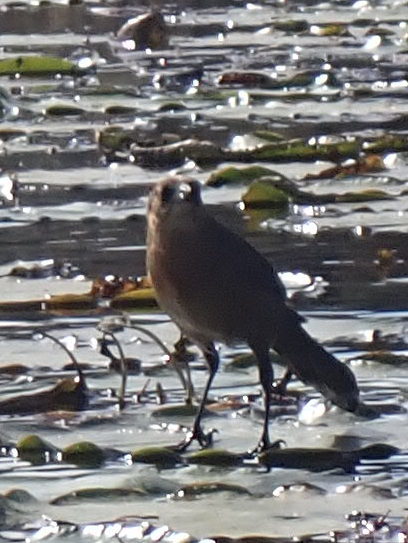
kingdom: Animalia
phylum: Chordata
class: Aves
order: Passeriformes
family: Icteridae
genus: Quiscalus
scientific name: Quiscalus major
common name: Boat-tailed grackle
